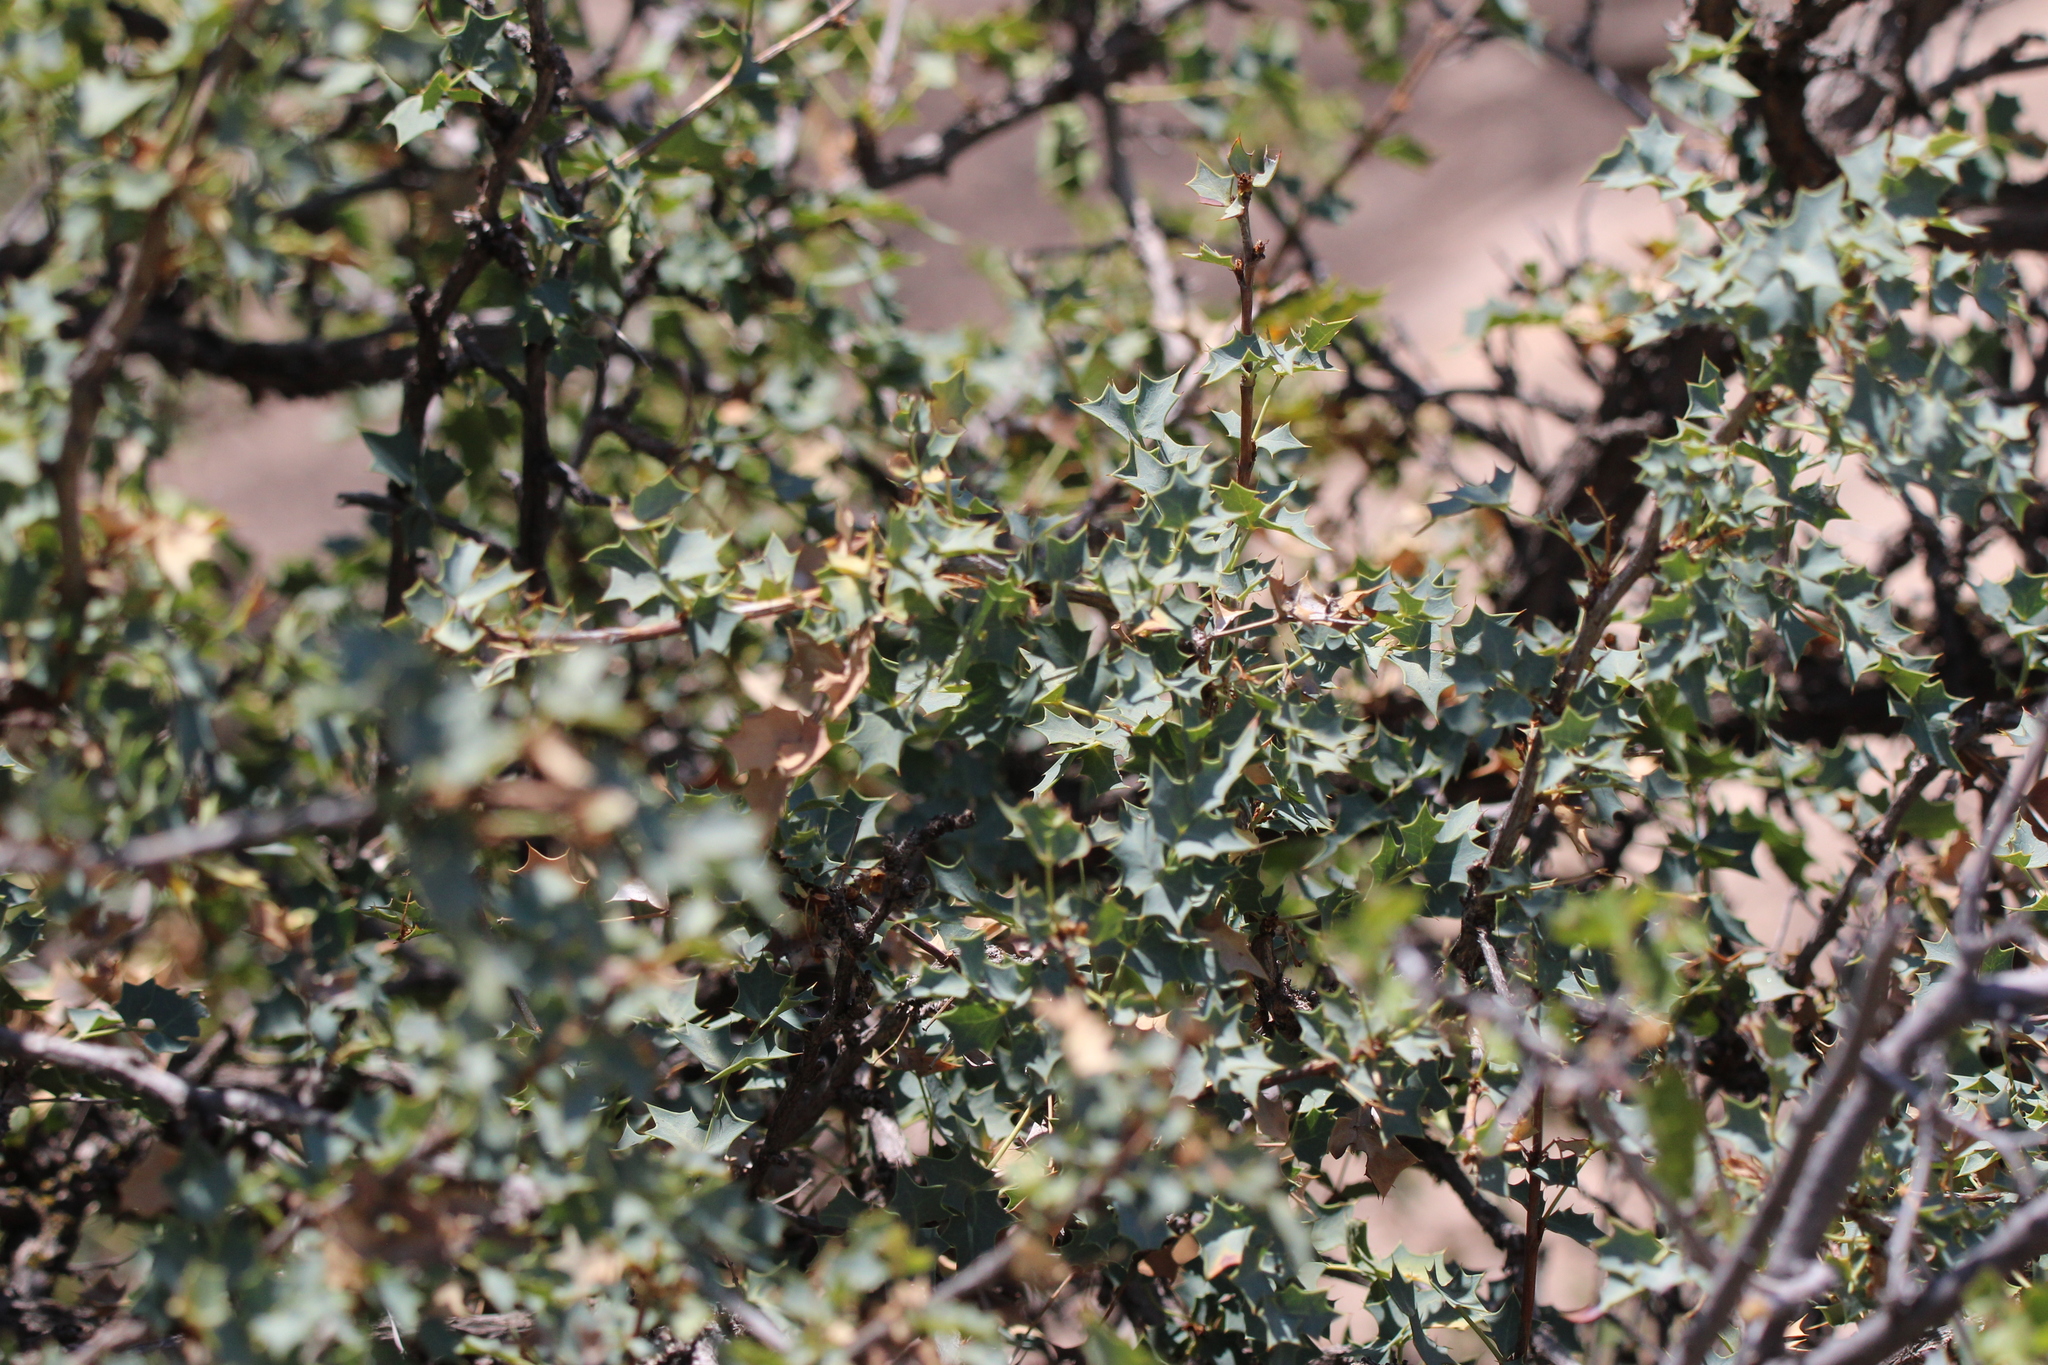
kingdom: Plantae
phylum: Tracheophyta
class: Magnoliopsida
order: Ranunculales
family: Berberidaceae
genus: Alloberberis
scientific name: Alloberberis fremontii
